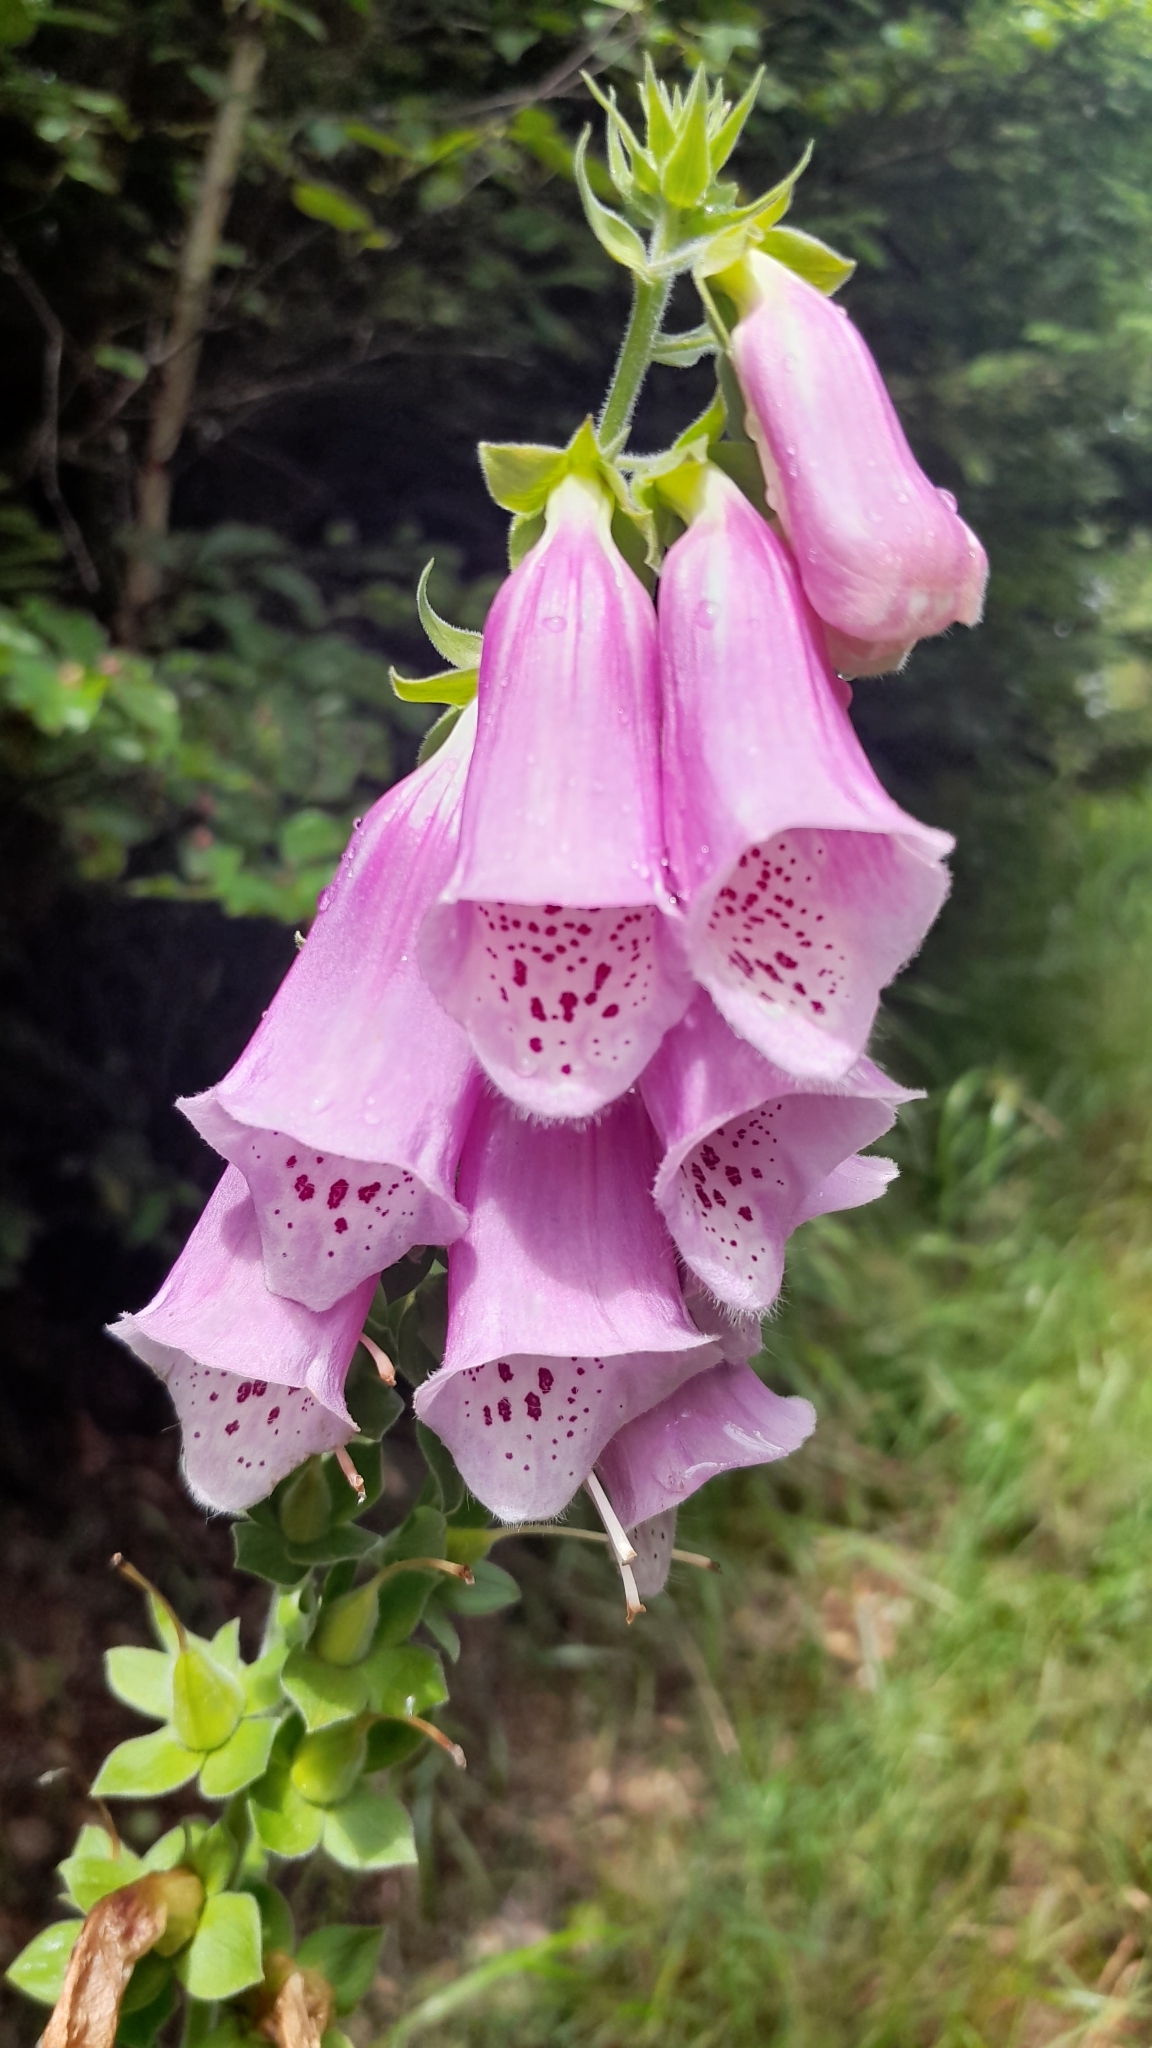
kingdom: Plantae
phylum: Tracheophyta
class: Magnoliopsida
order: Lamiales
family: Plantaginaceae
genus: Digitalis
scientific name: Digitalis purpurea
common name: Foxglove
